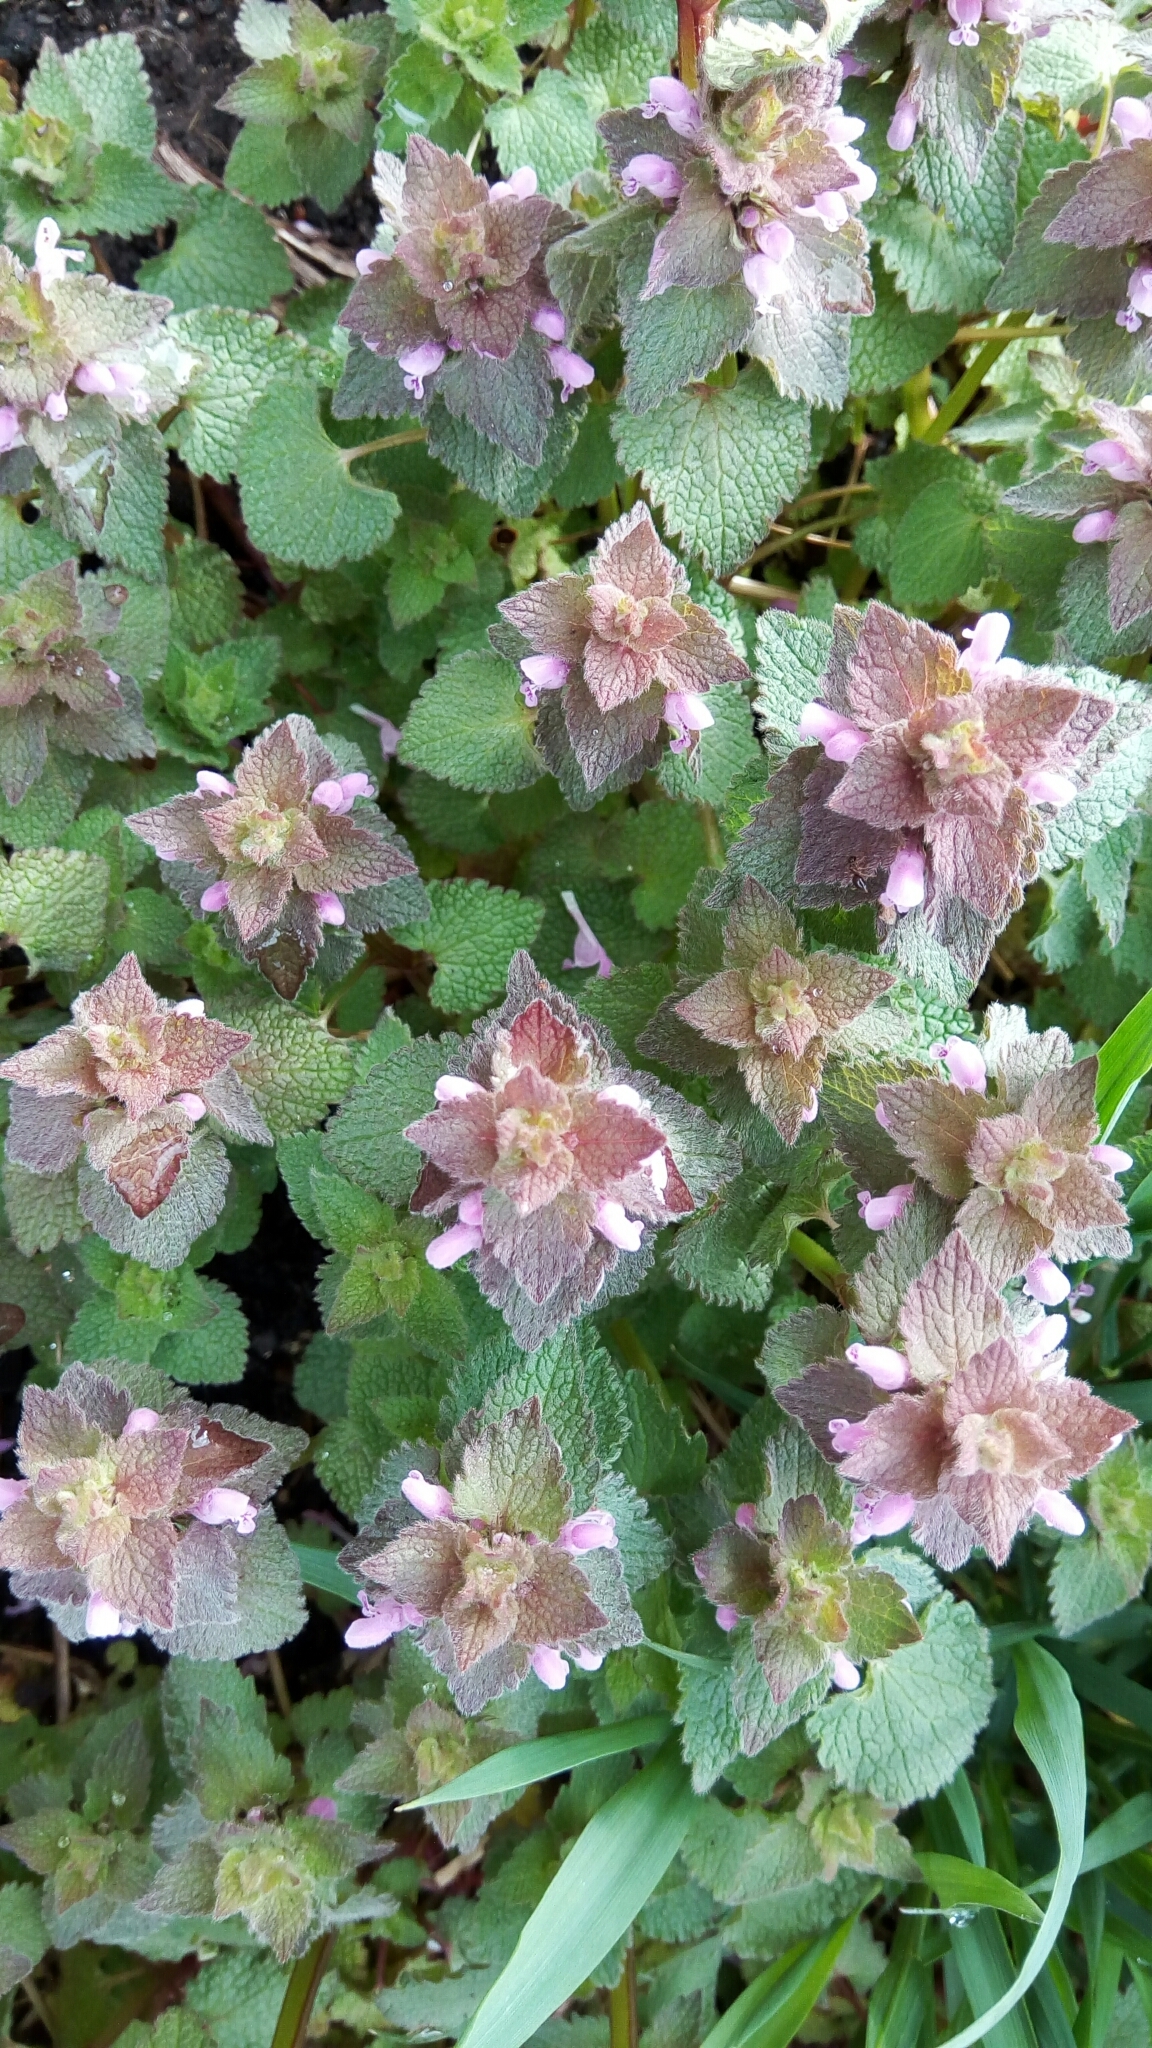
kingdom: Plantae
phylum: Tracheophyta
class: Magnoliopsida
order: Lamiales
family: Lamiaceae
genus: Lamium
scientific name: Lamium purpureum
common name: Red dead-nettle
